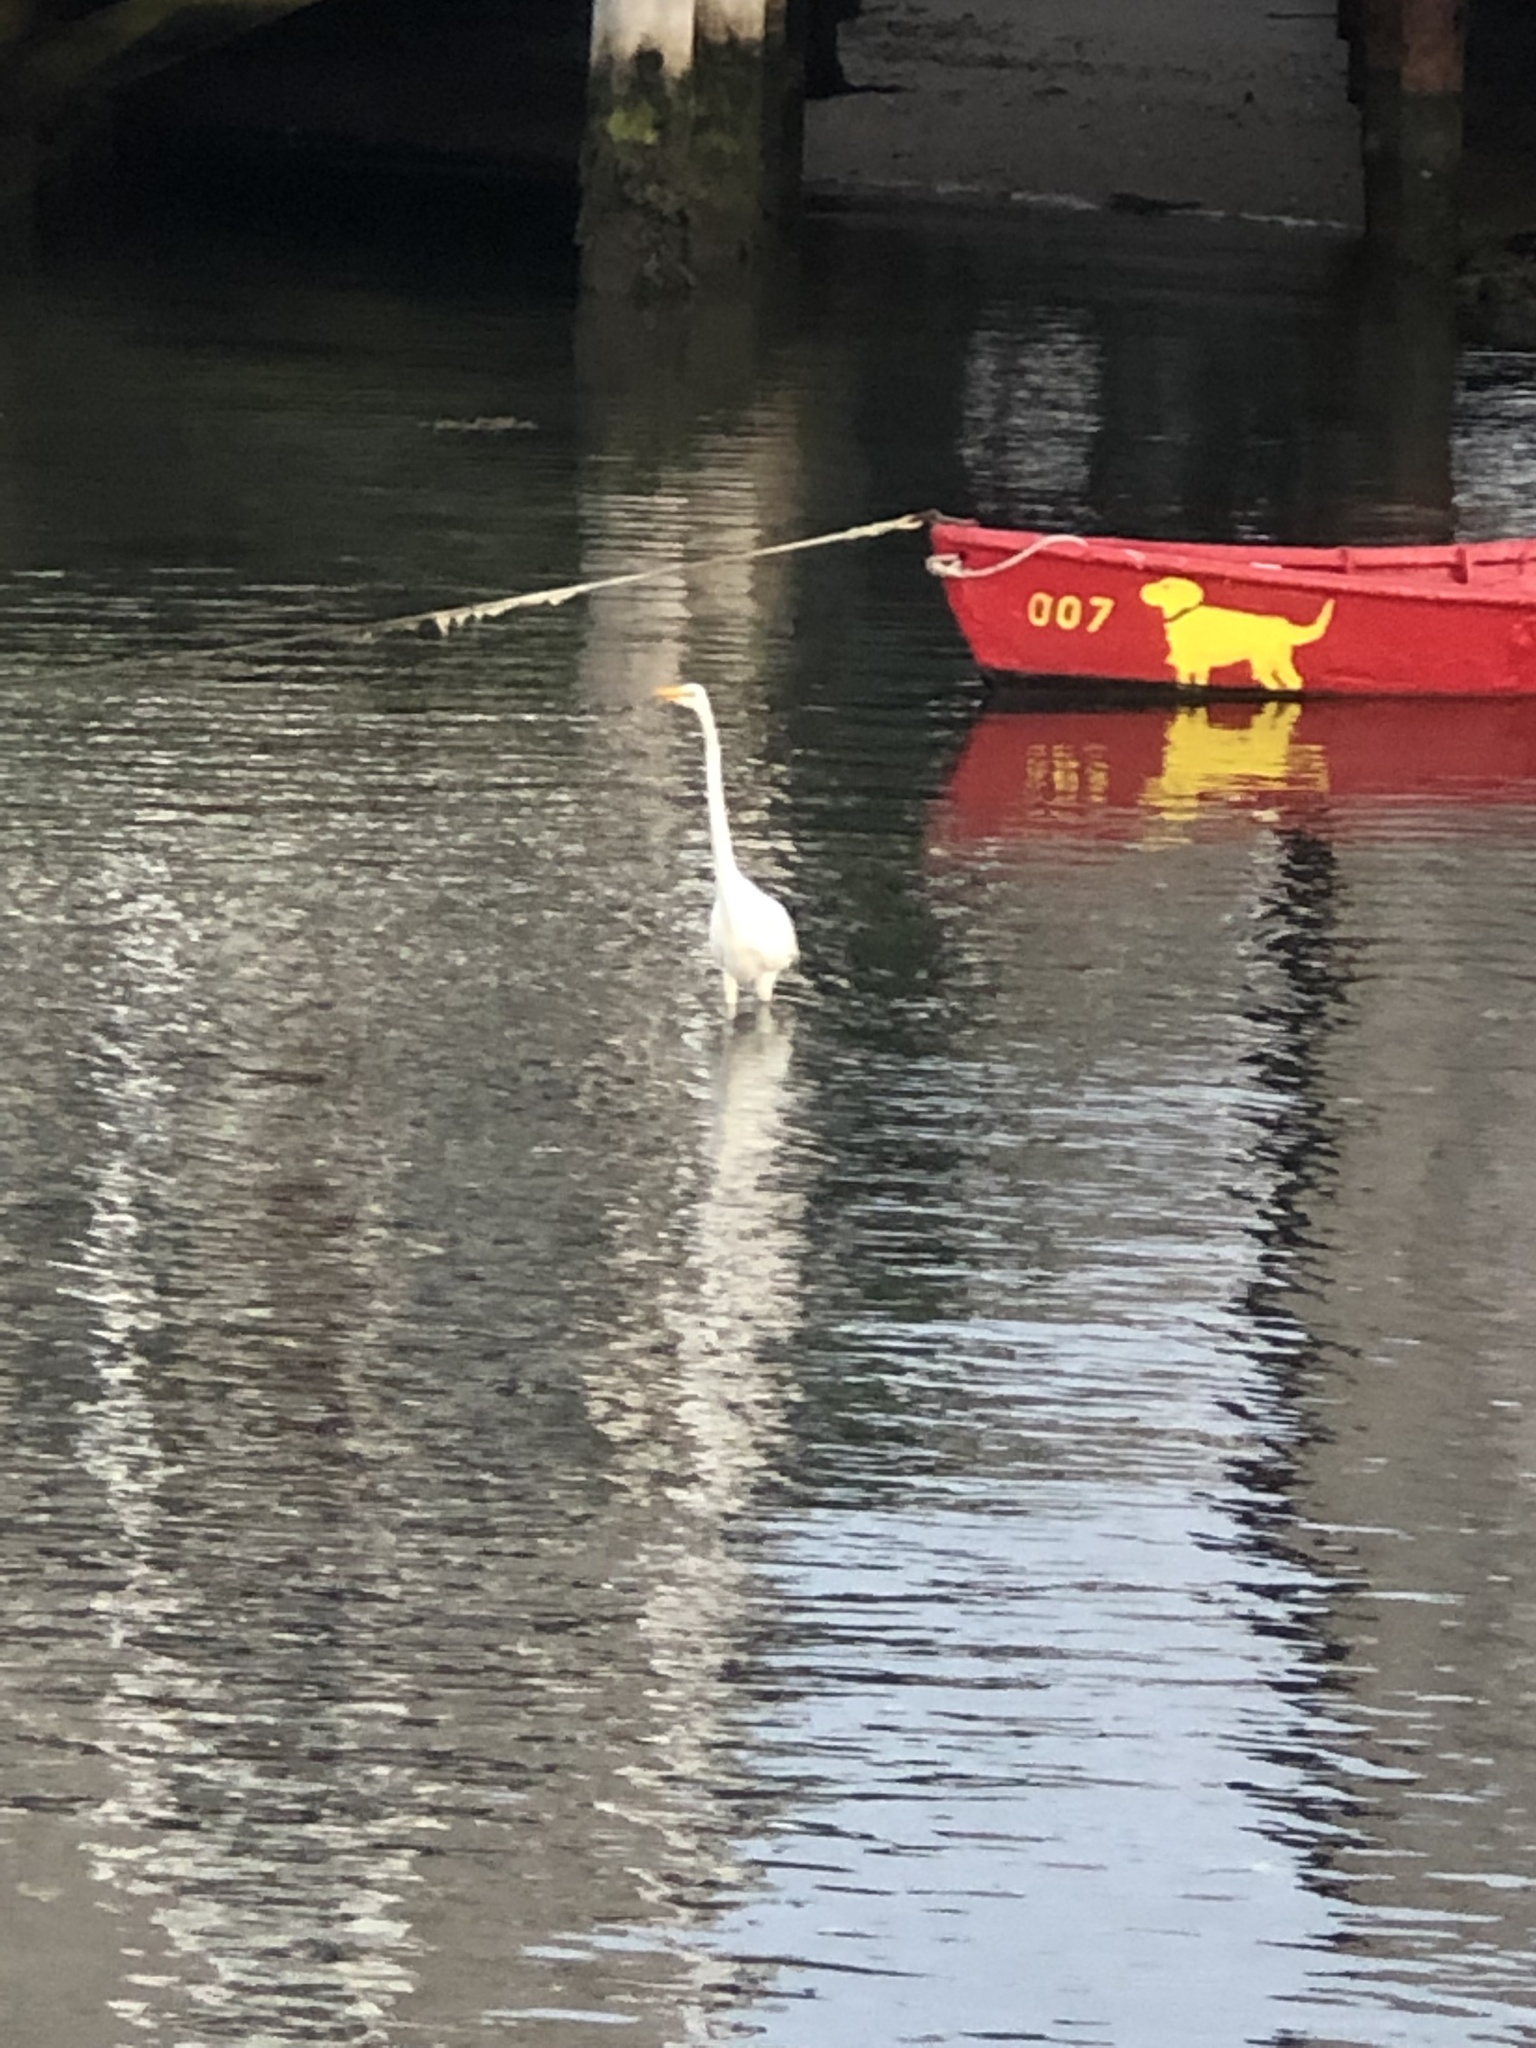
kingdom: Animalia
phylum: Chordata
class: Aves
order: Pelecaniformes
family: Ardeidae
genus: Ardea
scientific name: Ardea alba
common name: Great egret
